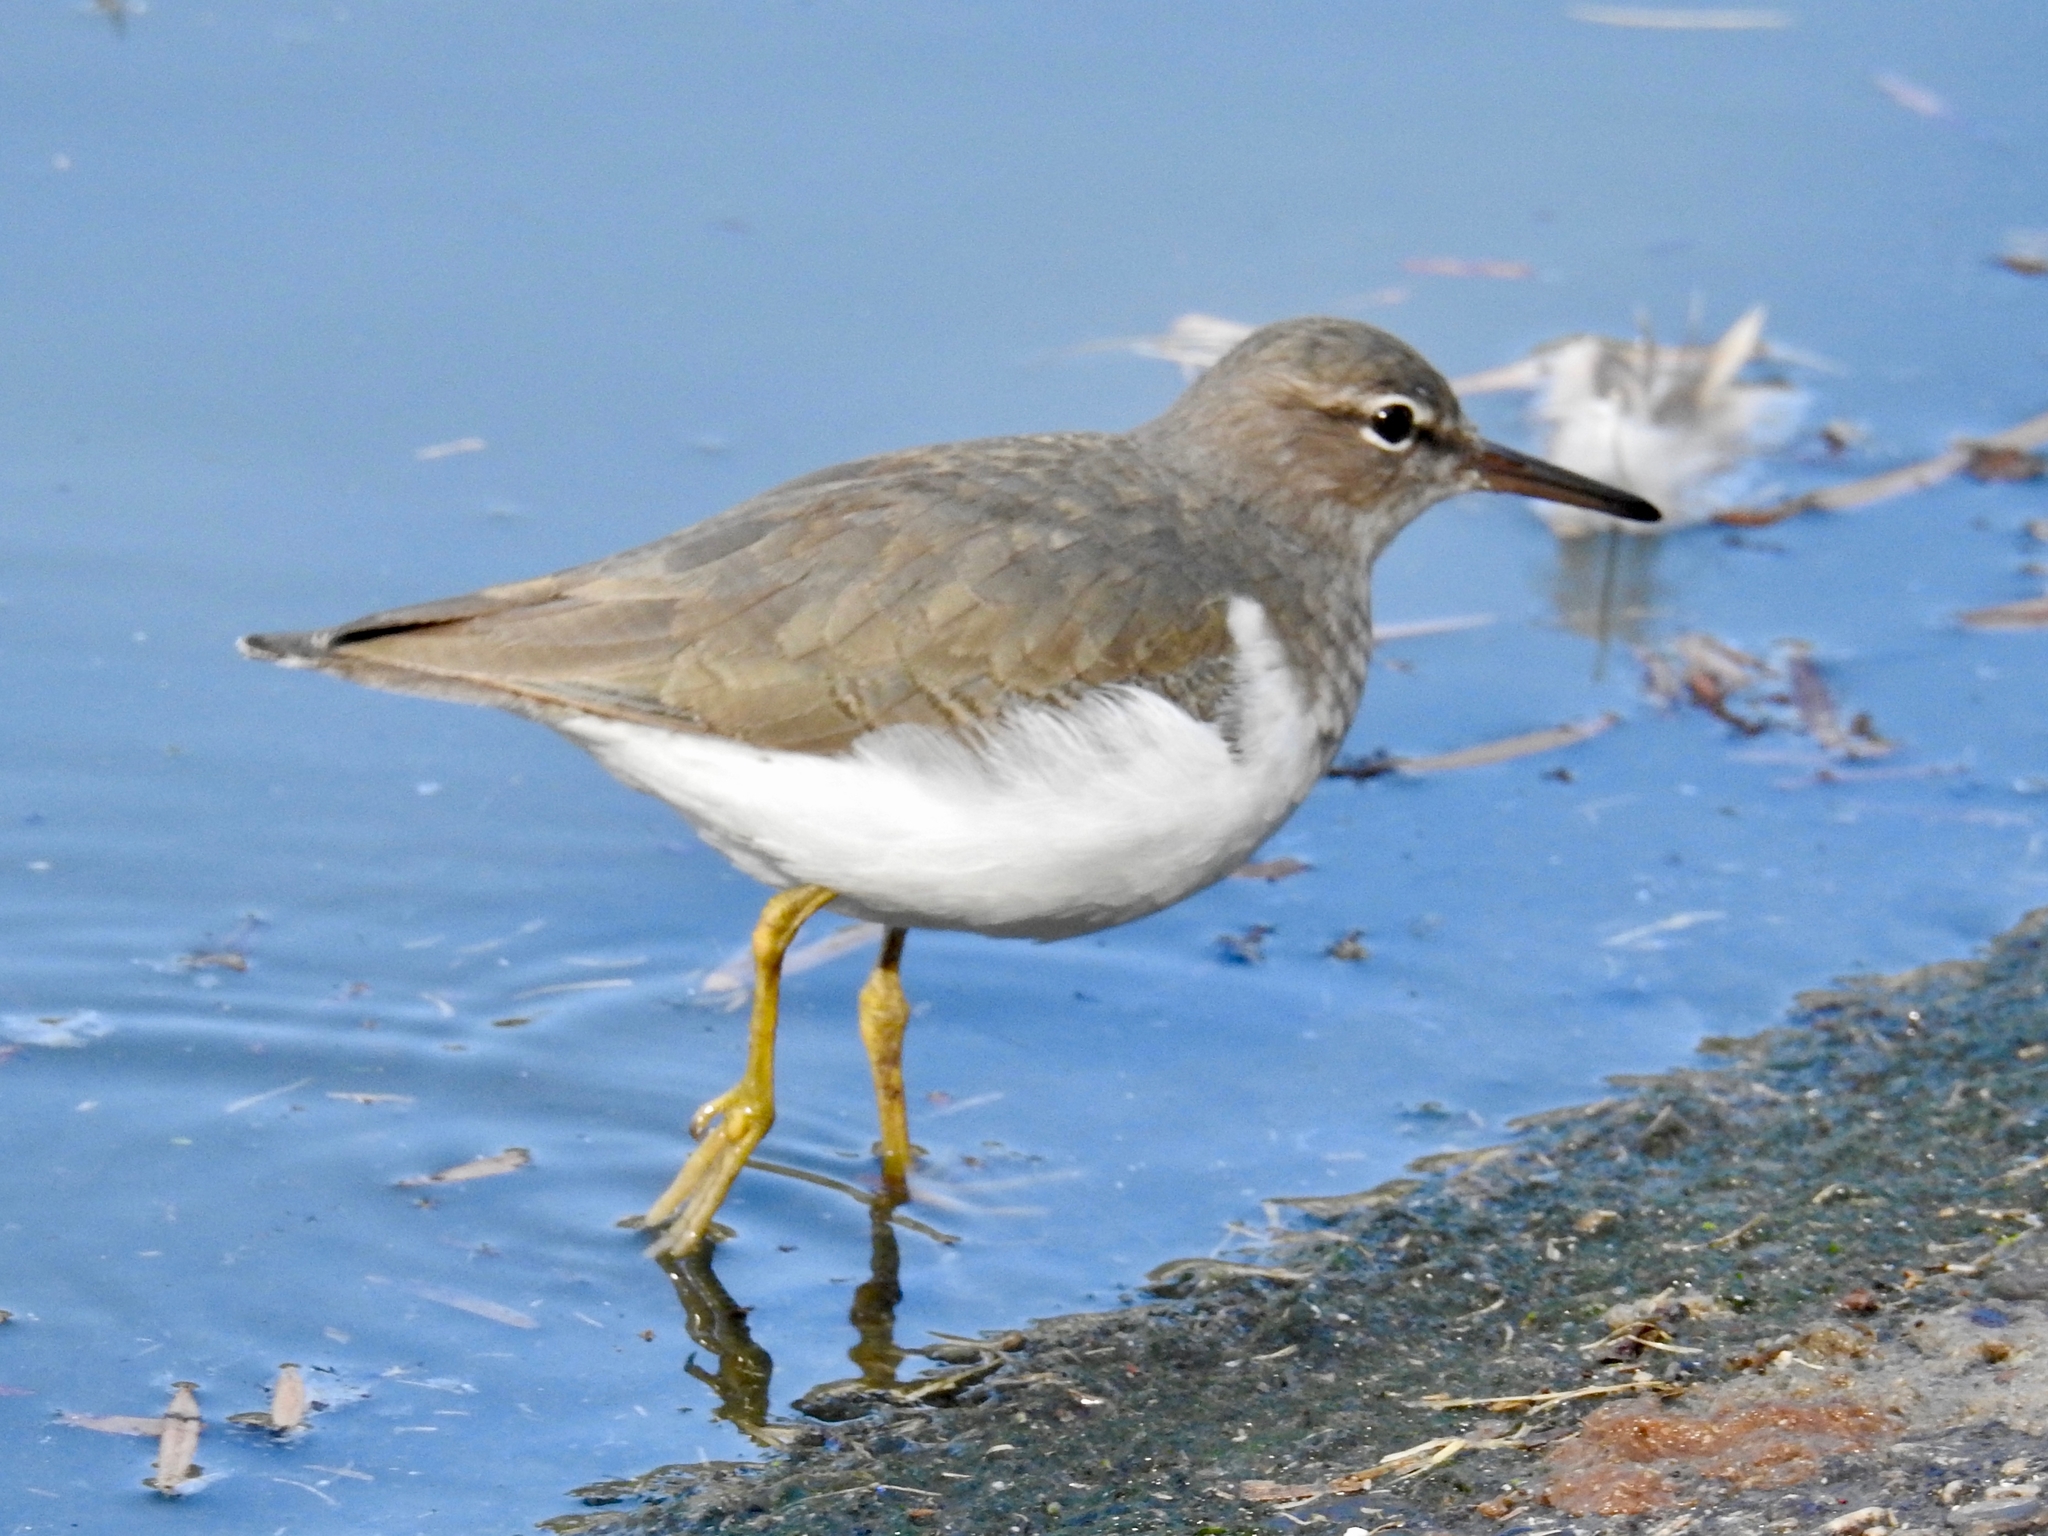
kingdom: Animalia
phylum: Chordata
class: Aves
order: Charadriiformes
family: Scolopacidae
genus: Actitis
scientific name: Actitis macularius
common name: Spotted sandpiper
